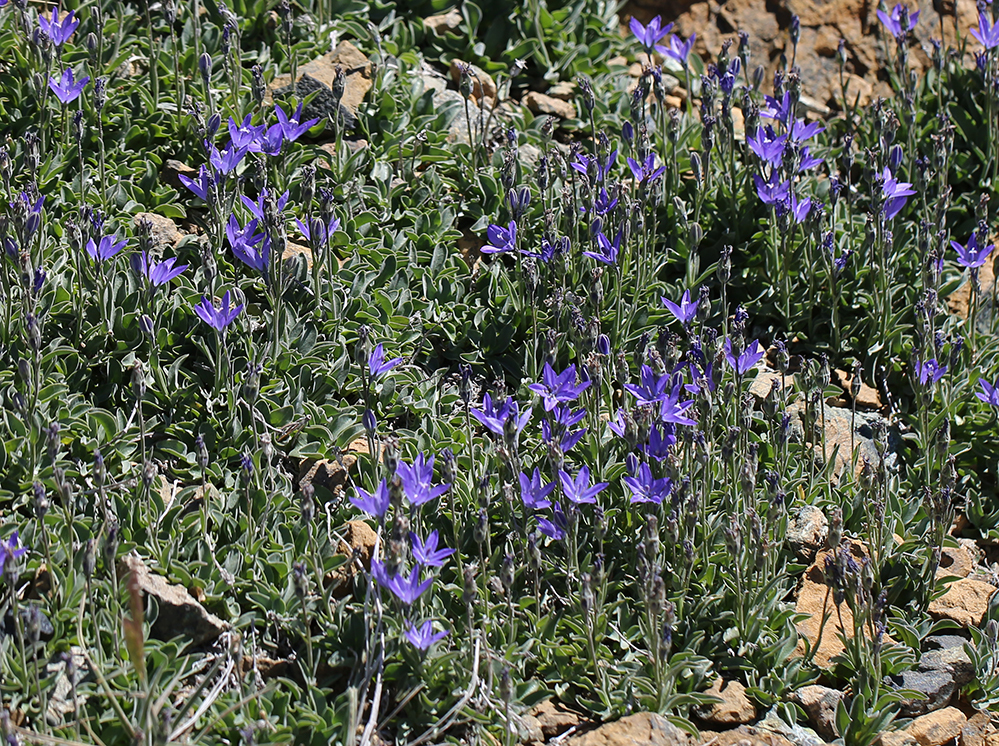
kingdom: Plantae
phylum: Tracheophyta
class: Magnoliopsida
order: Asterales
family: Campanulaceae
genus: Campanula
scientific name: Campanula scabrella
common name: Downy alpine bellflower
